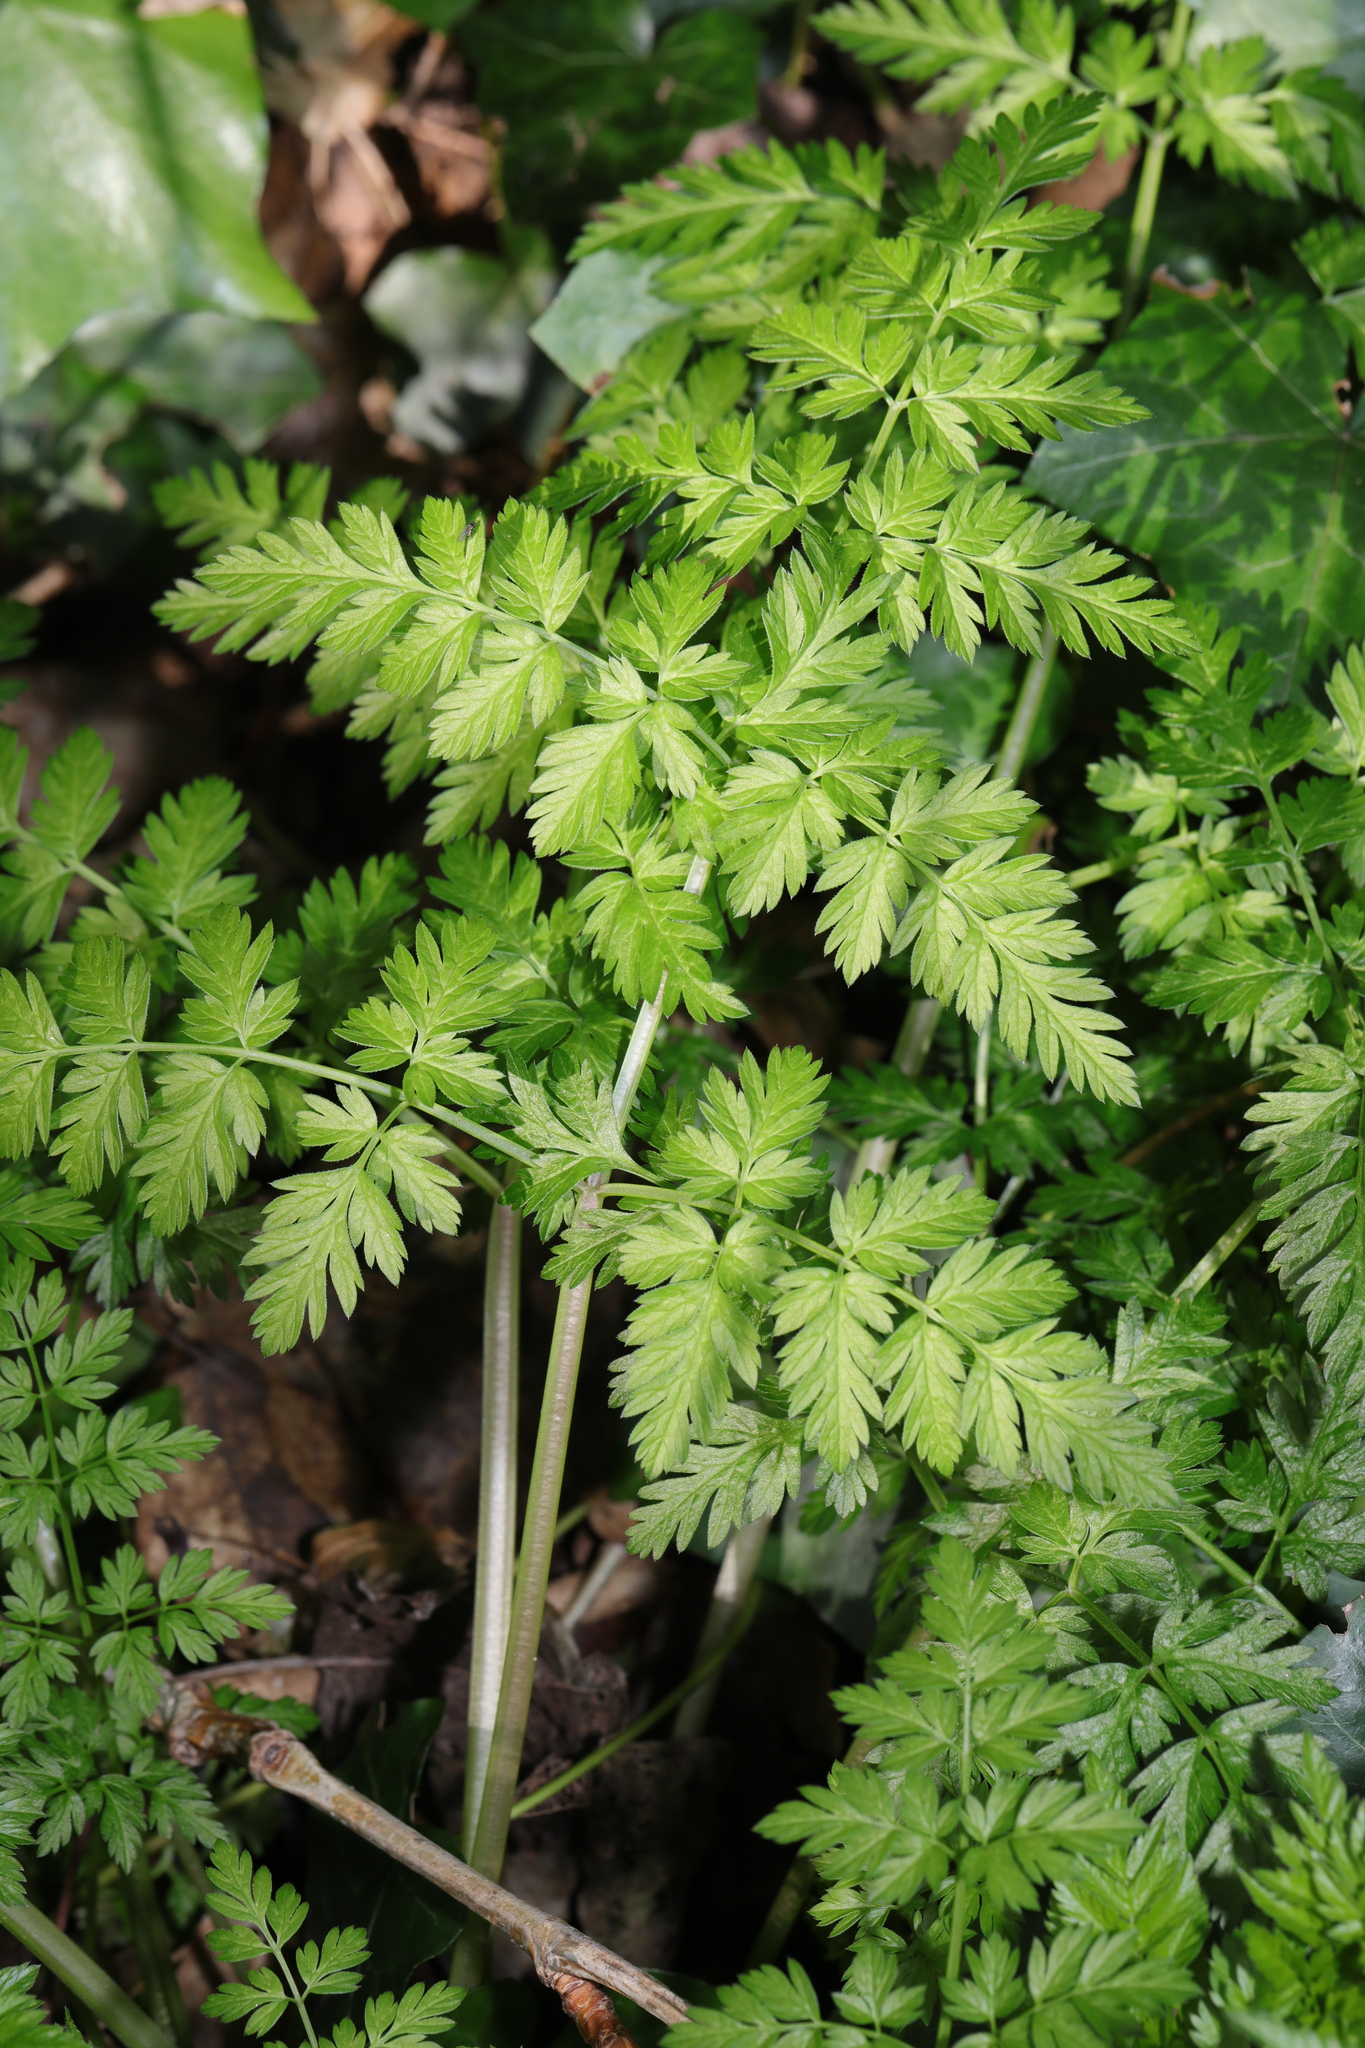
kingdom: Plantae
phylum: Tracheophyta
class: Magnoliopsida
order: Apiales
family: Apiaceae
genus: Anthriscus
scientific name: Anthriscus sylvestris
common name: Cow parsley
